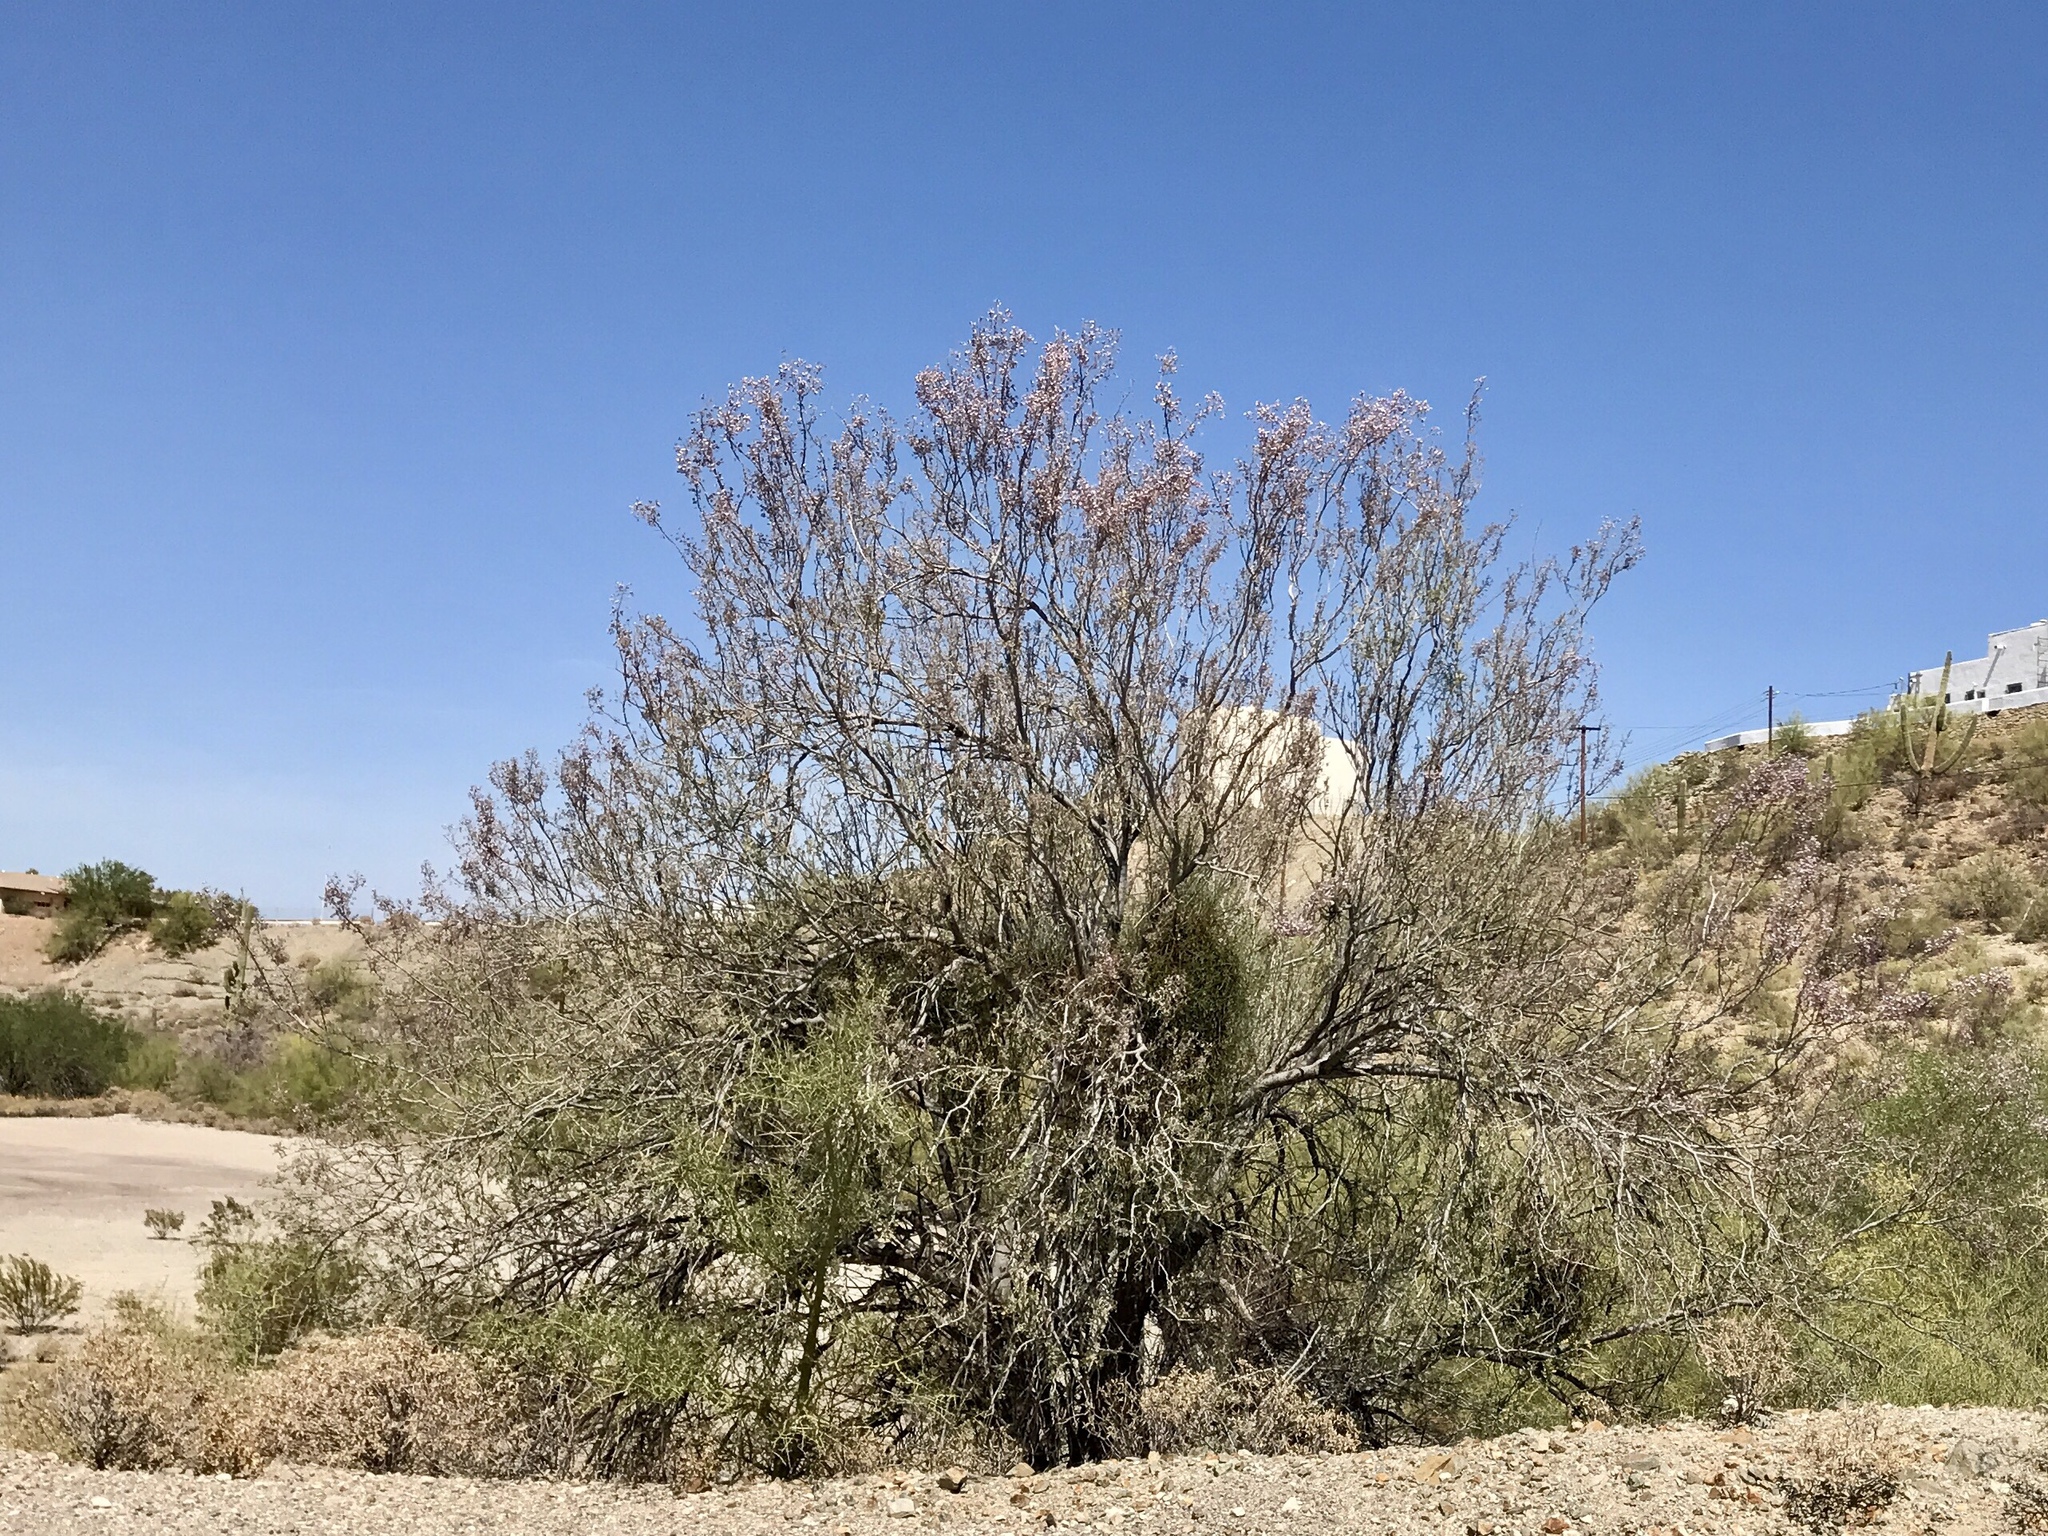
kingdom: Plantae
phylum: Tracheophyta
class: Magnoliopsida
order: Fabales
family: Fabaceae
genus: Olneya
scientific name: Olneya tesota
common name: Desert ironwood
